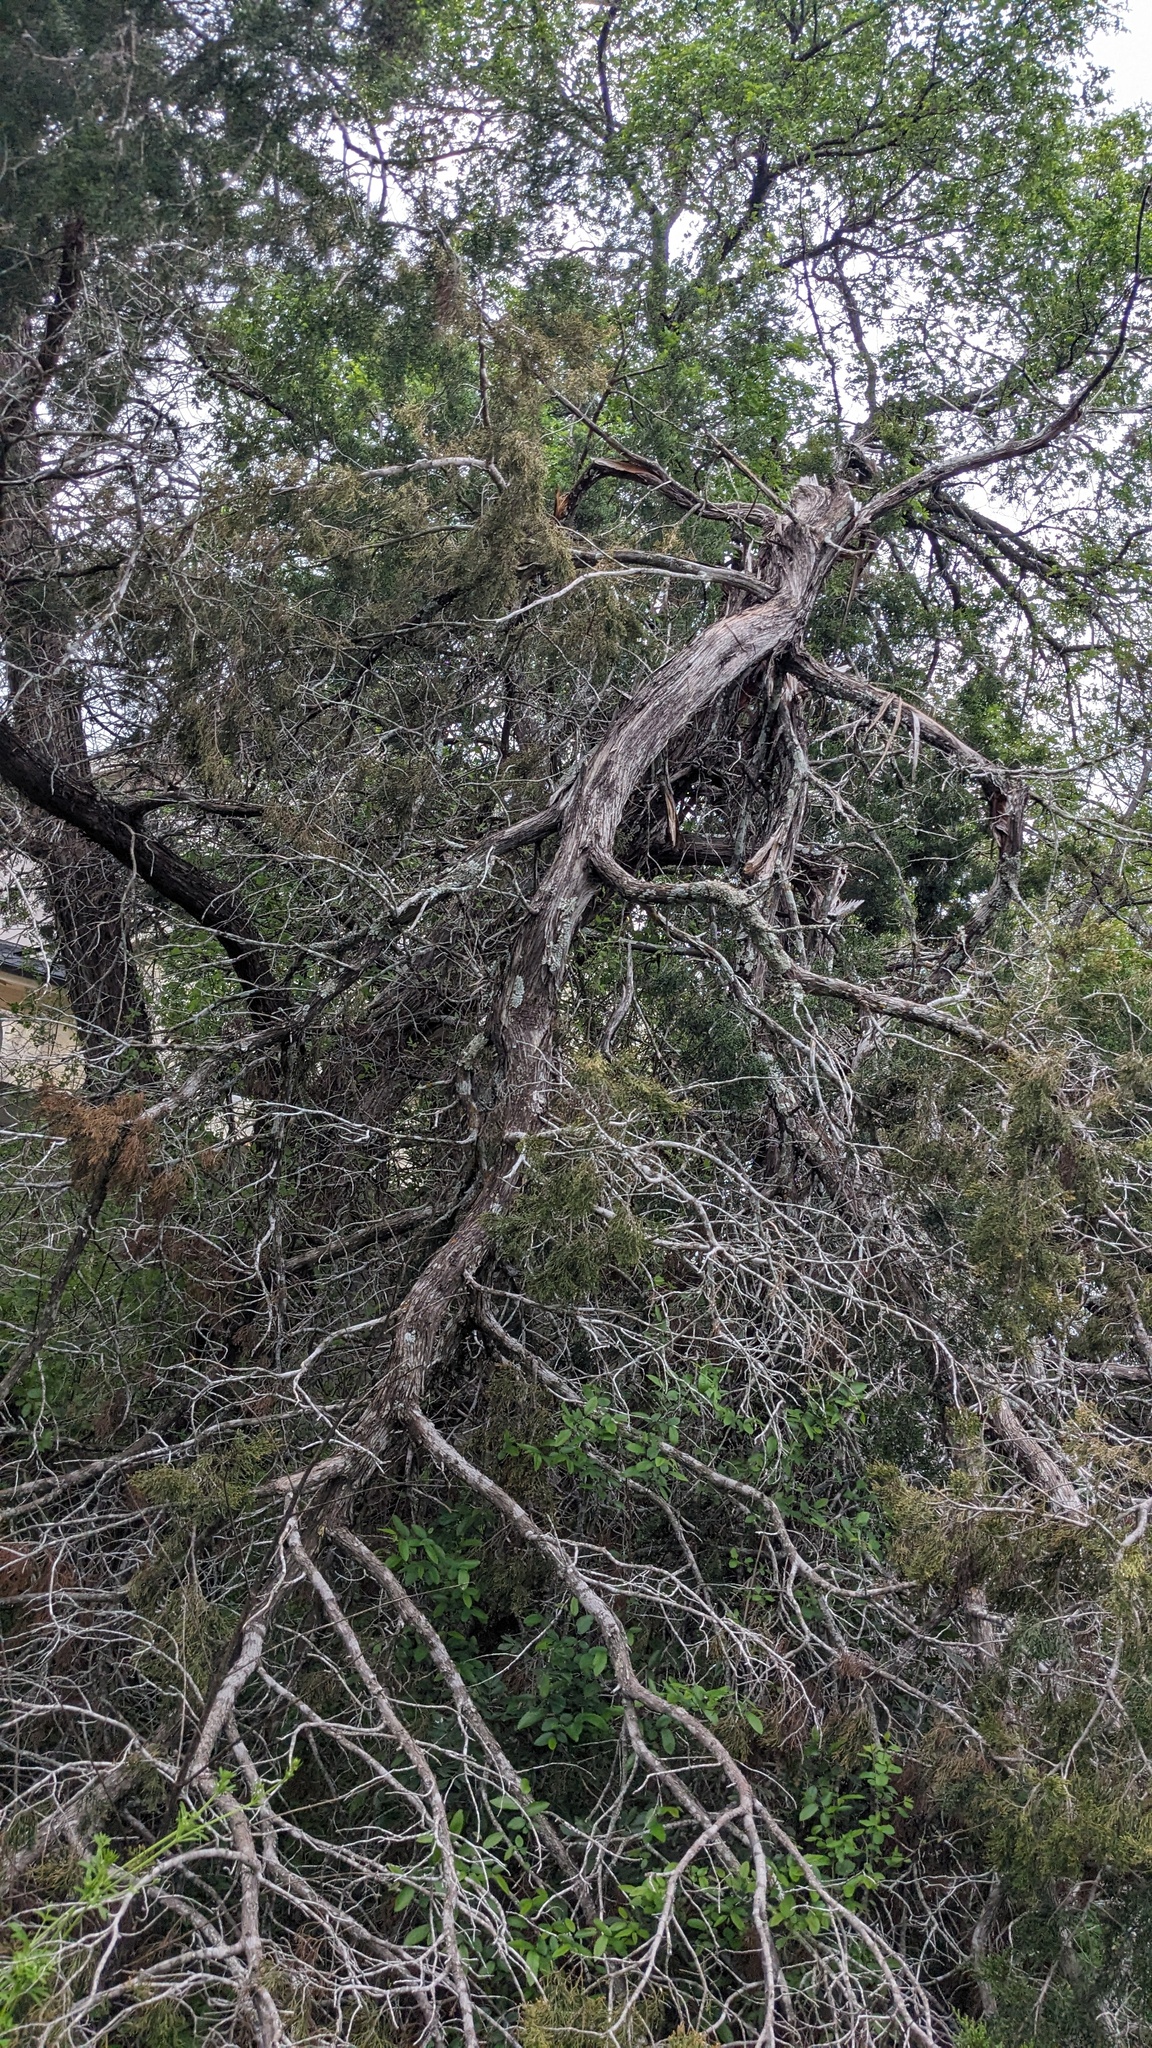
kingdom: Plantae
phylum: Tracheophyta
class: Pinopsida
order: Pinales
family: Cupressaceae
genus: Juniperus
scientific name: Juniperus ashei
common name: Mexican juniper
